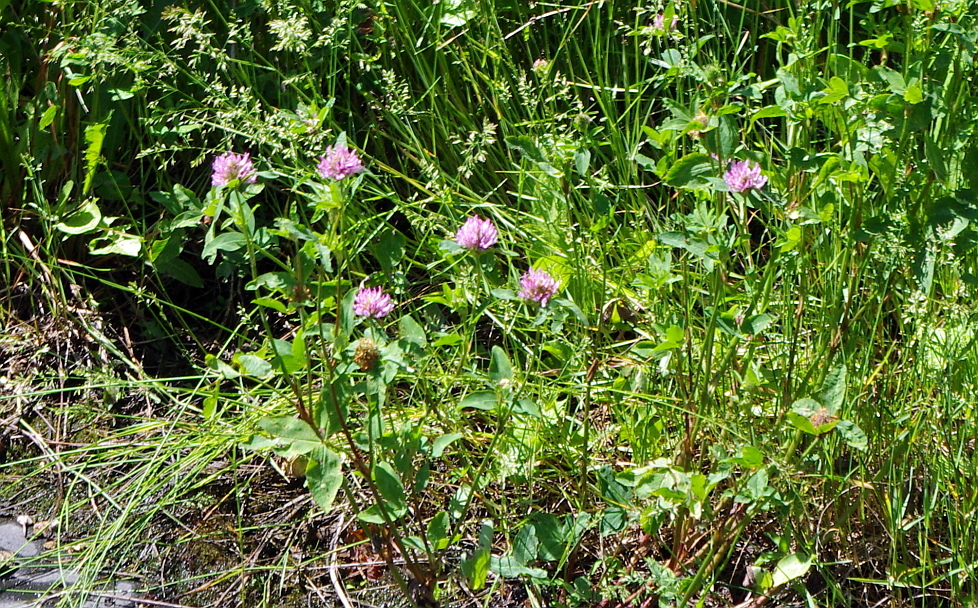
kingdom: Plantae
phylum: Tracheophyta
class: Magnoliopsida
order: Fabales
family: Fabaceae
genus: Trifolium
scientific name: Trifolium pratense
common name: Red clover
